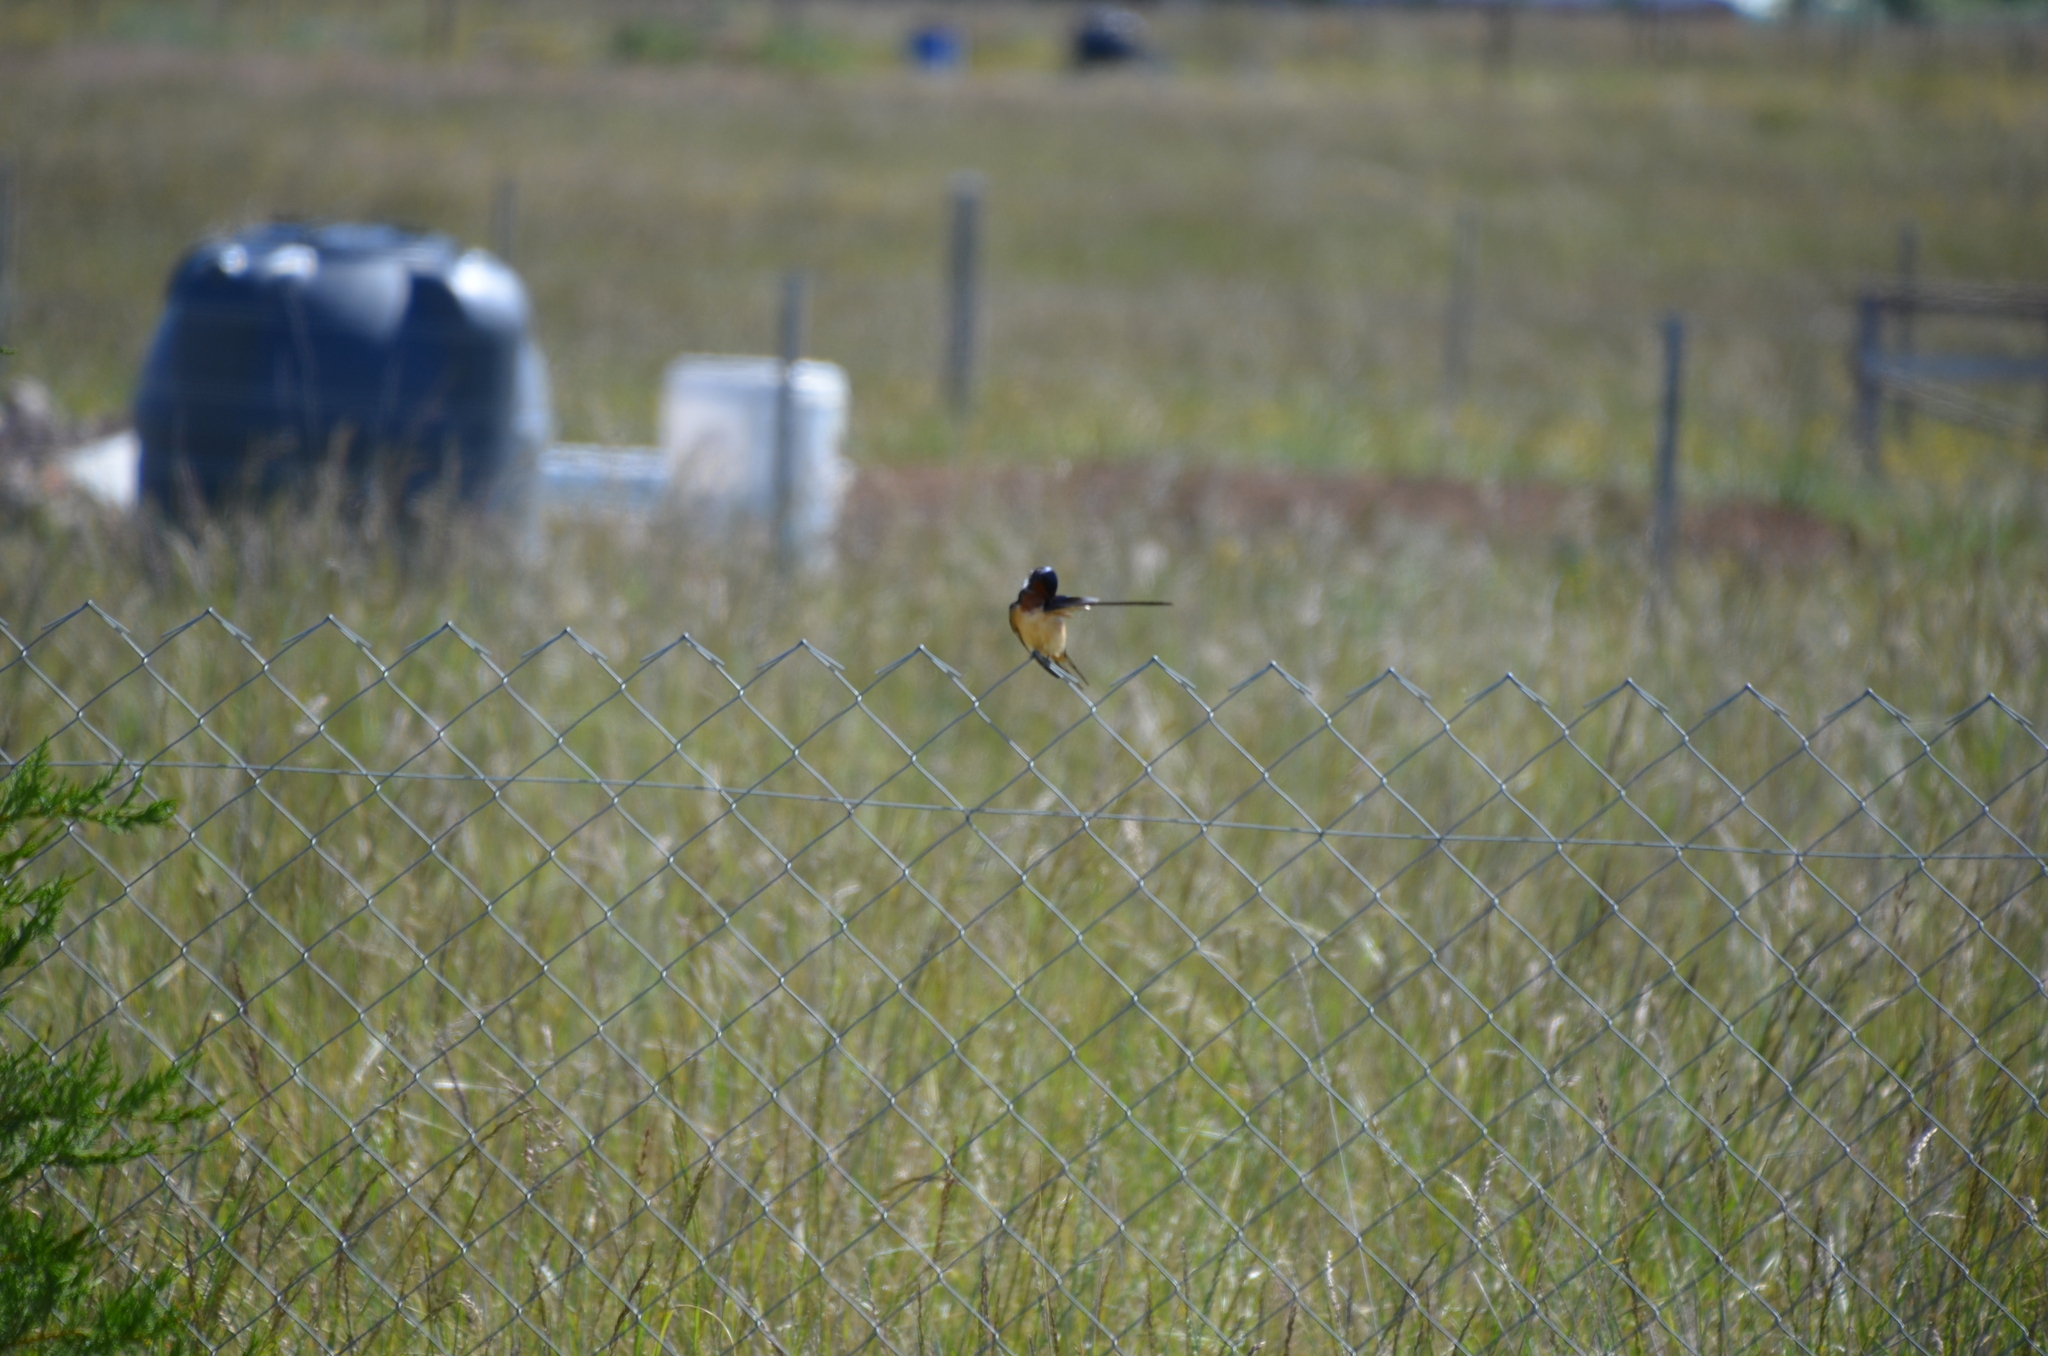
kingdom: Animalia
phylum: Chordata
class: Aves
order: Passeriformes
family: Hirundinidae
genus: Hirundo
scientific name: Hirundo rustica
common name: Barn swallow
